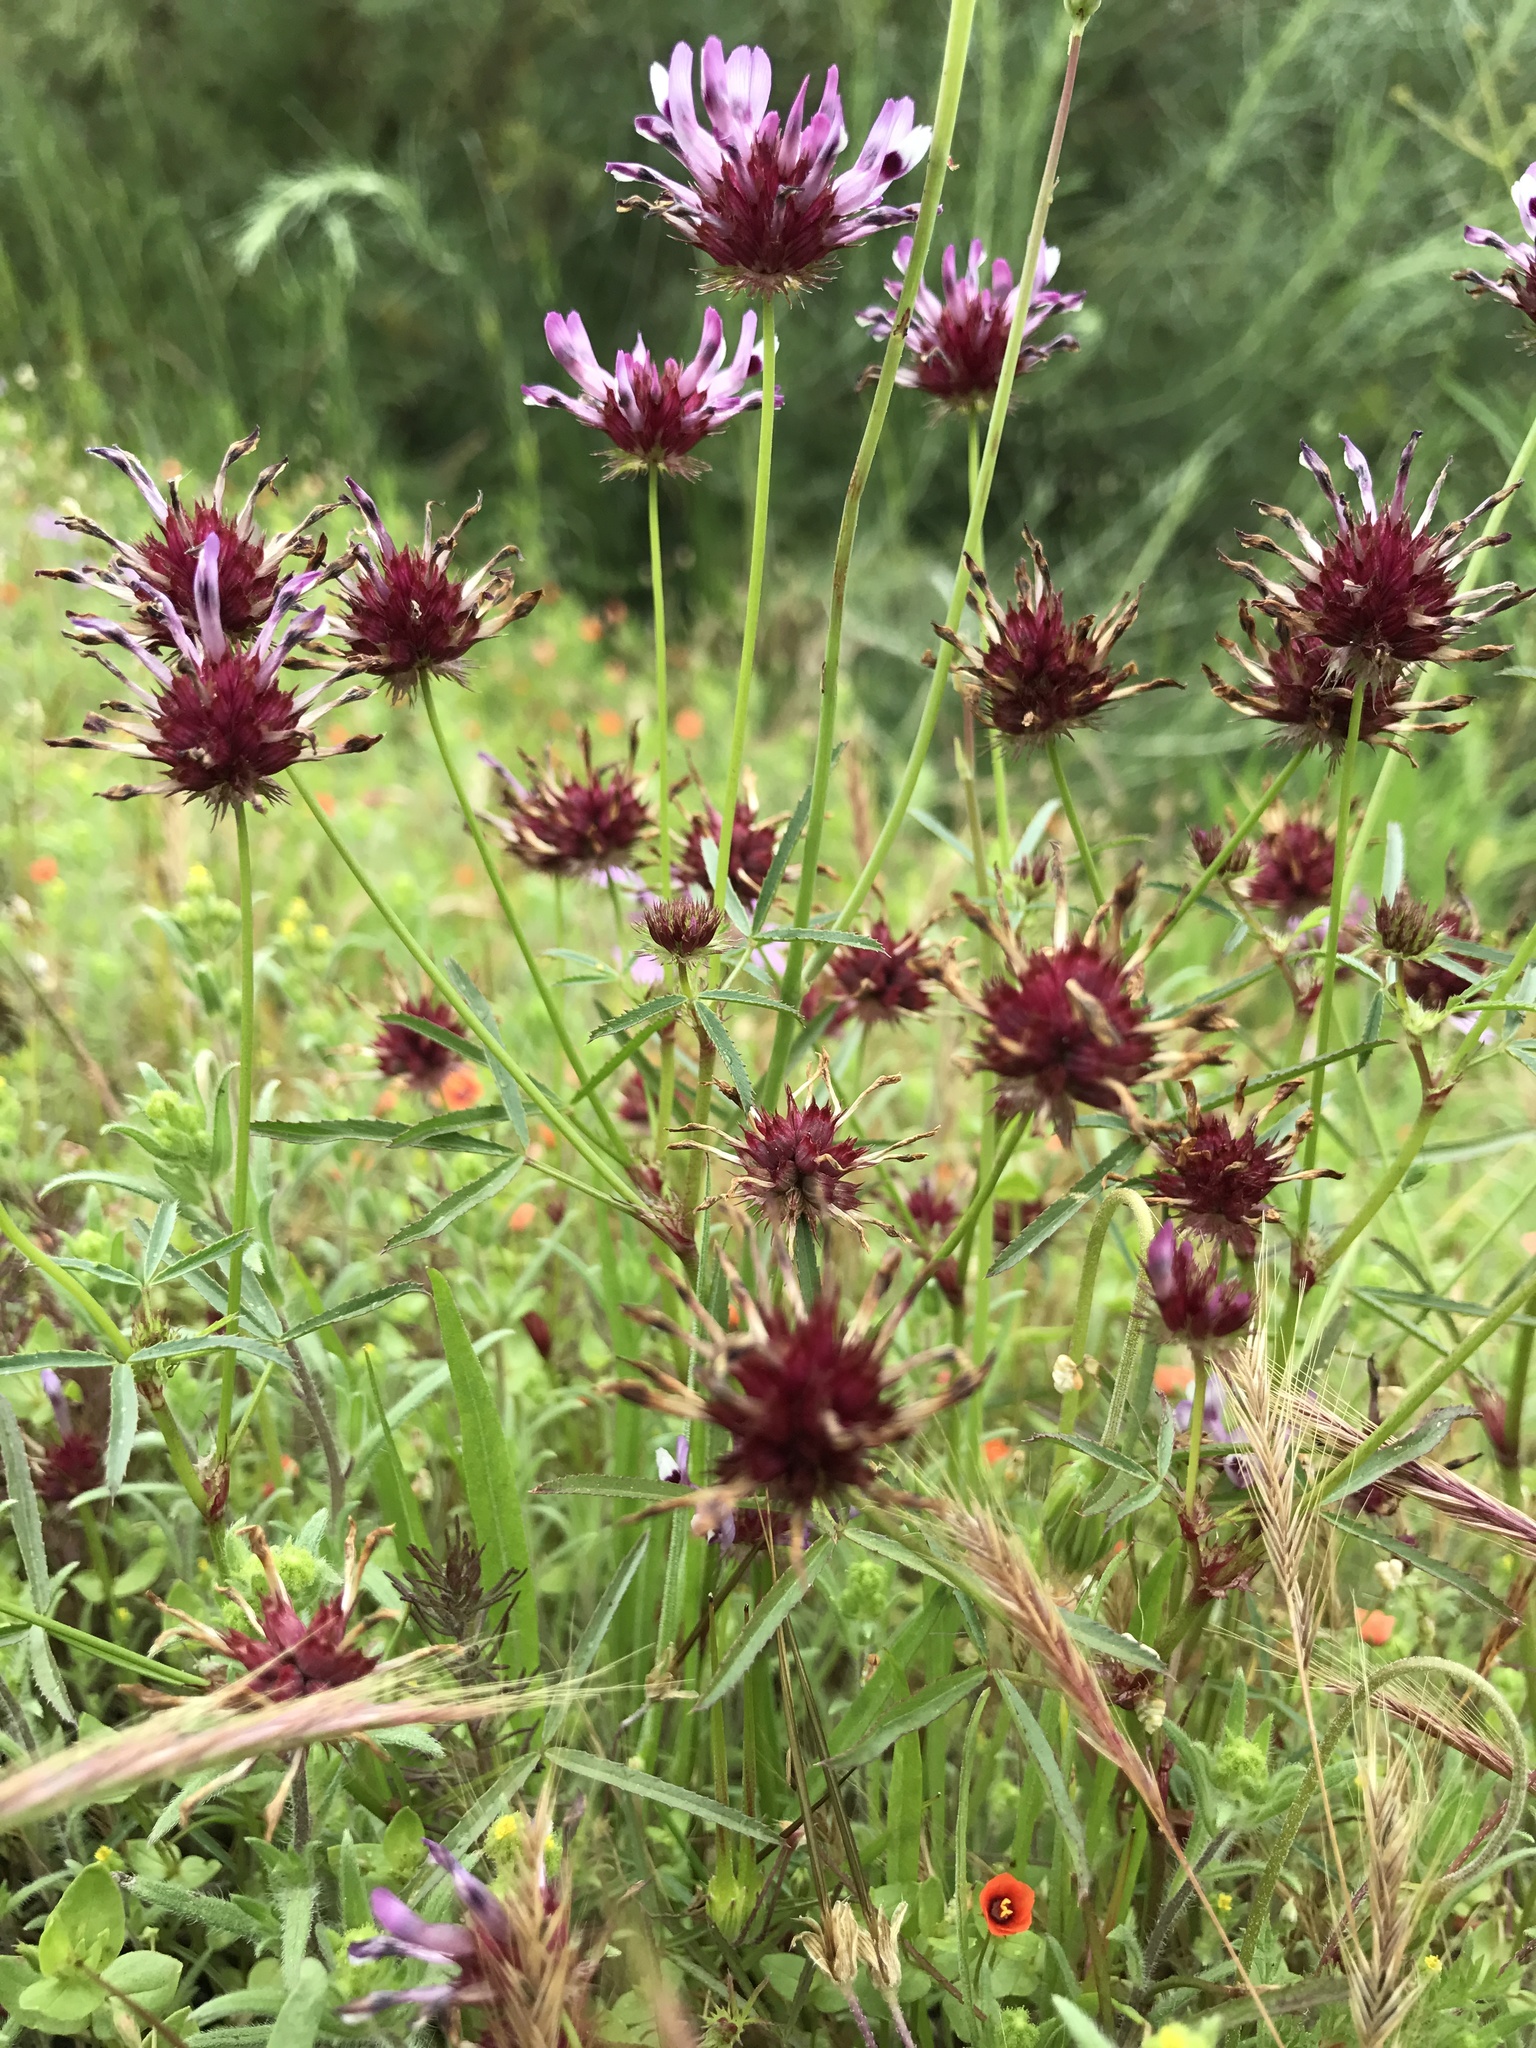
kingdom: Plantae
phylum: Tracheophyta
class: Magnoliopsida
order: Fabales
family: Fabaceae
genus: Trifolium
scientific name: Trifolium willdenovii
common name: Tomcat clover
